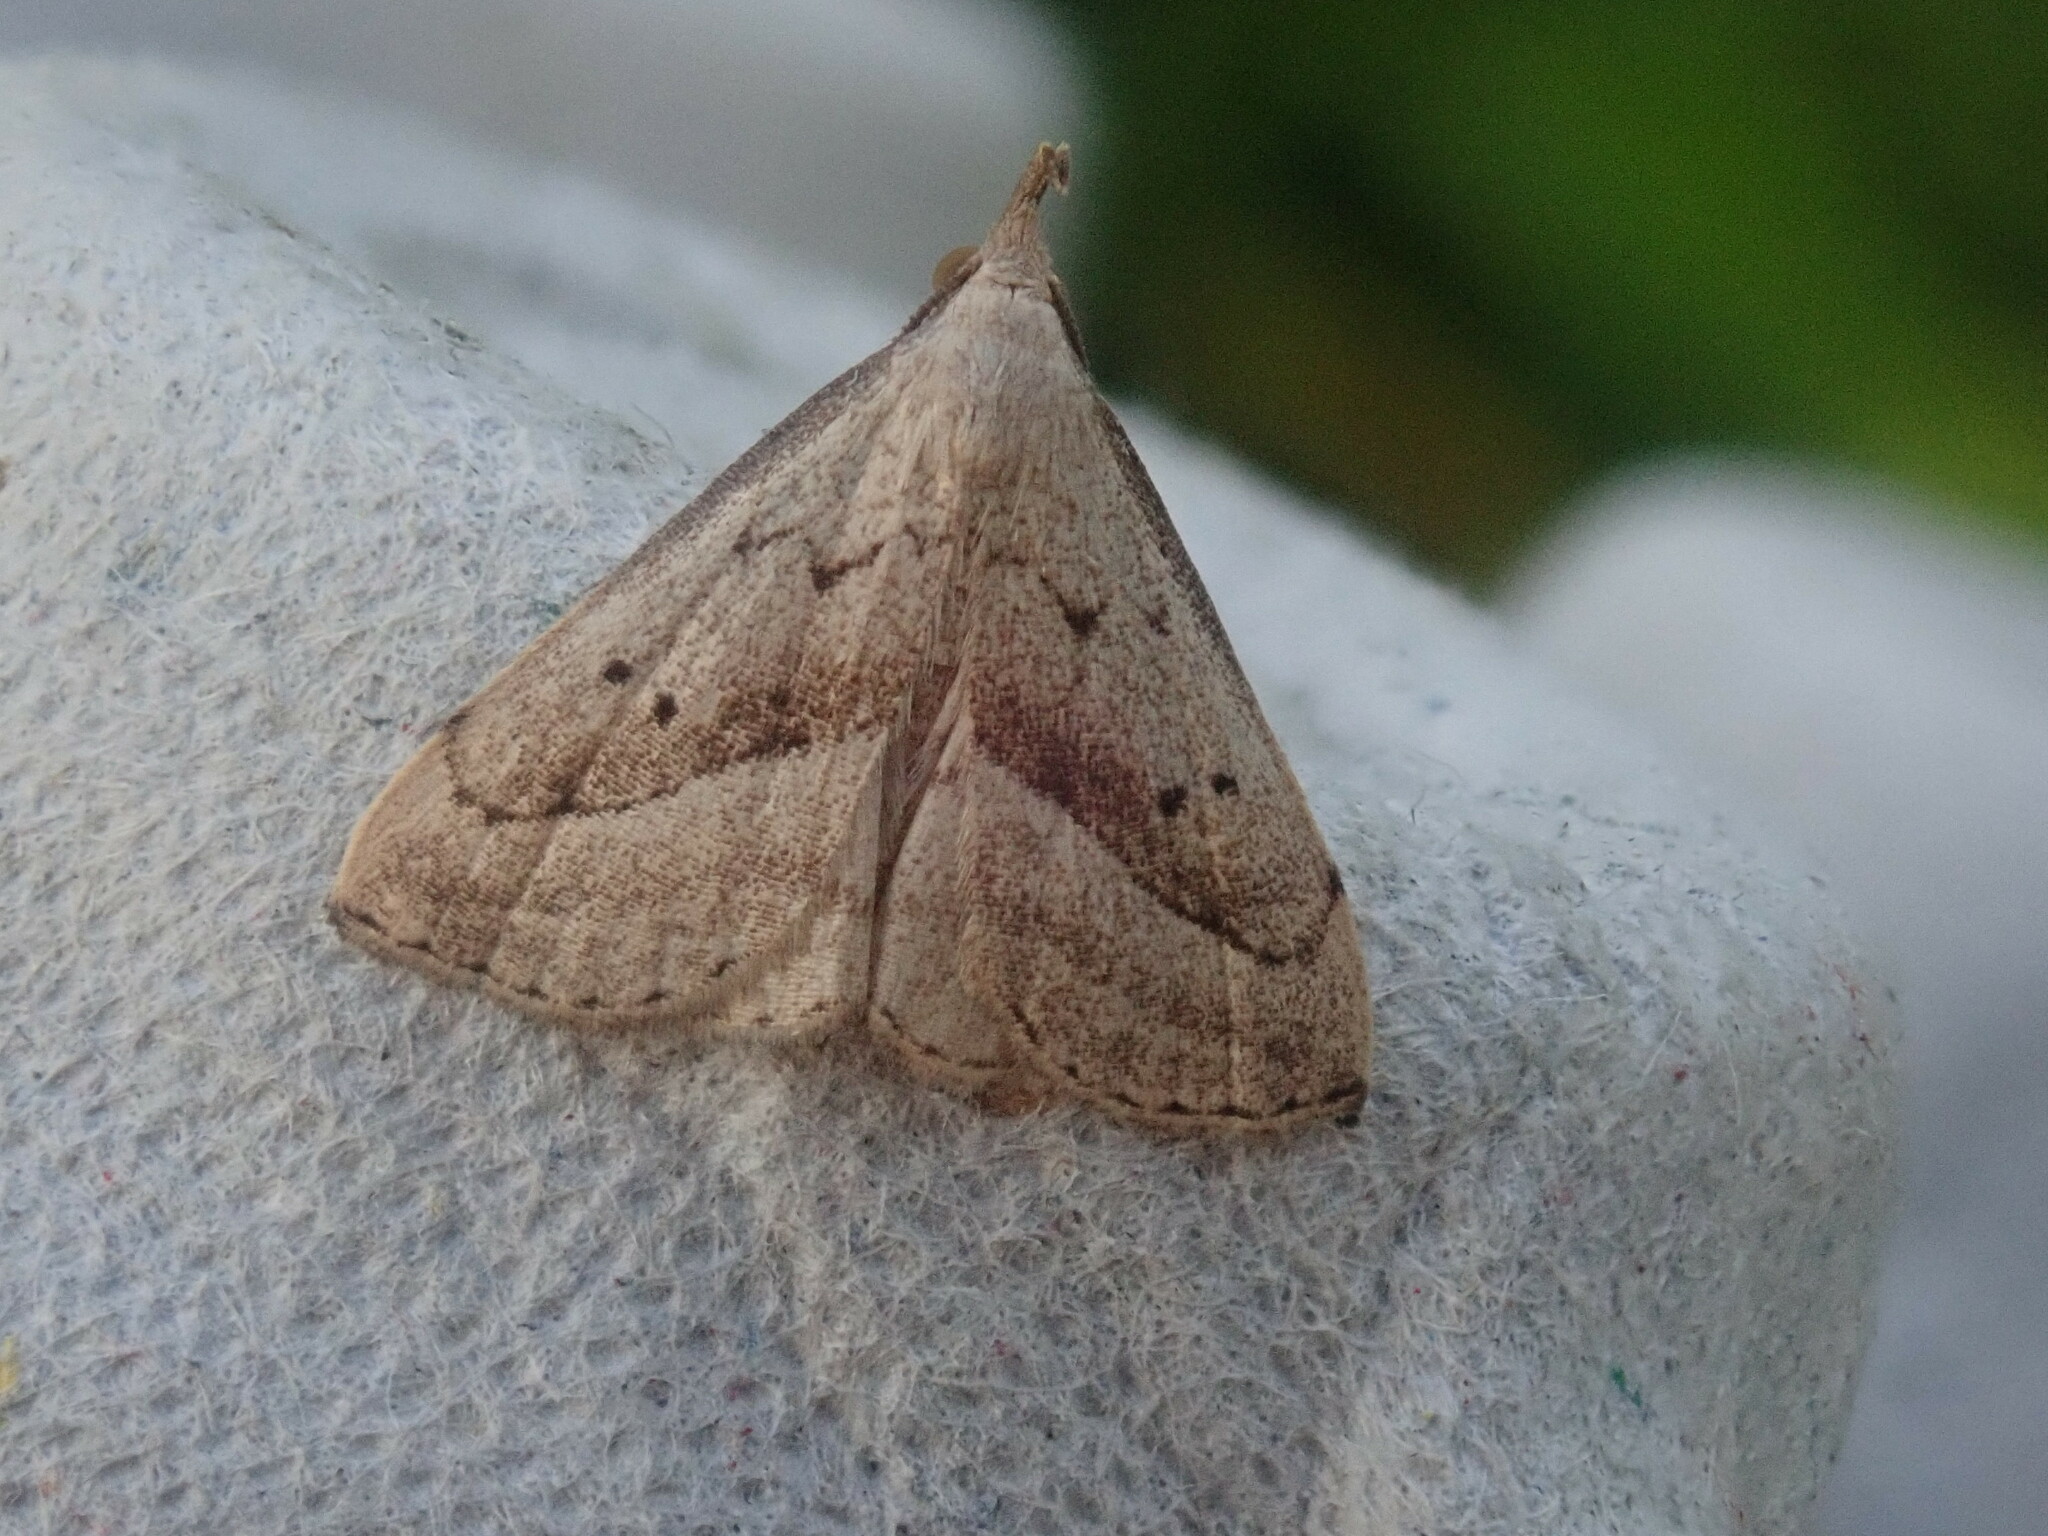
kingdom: Animalia
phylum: Arthropoda
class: Insecta
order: Lepidoptera
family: Erebidae
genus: Macrochilo
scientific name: Macrochilo hypocritalis
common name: Twin-dotted owlet
